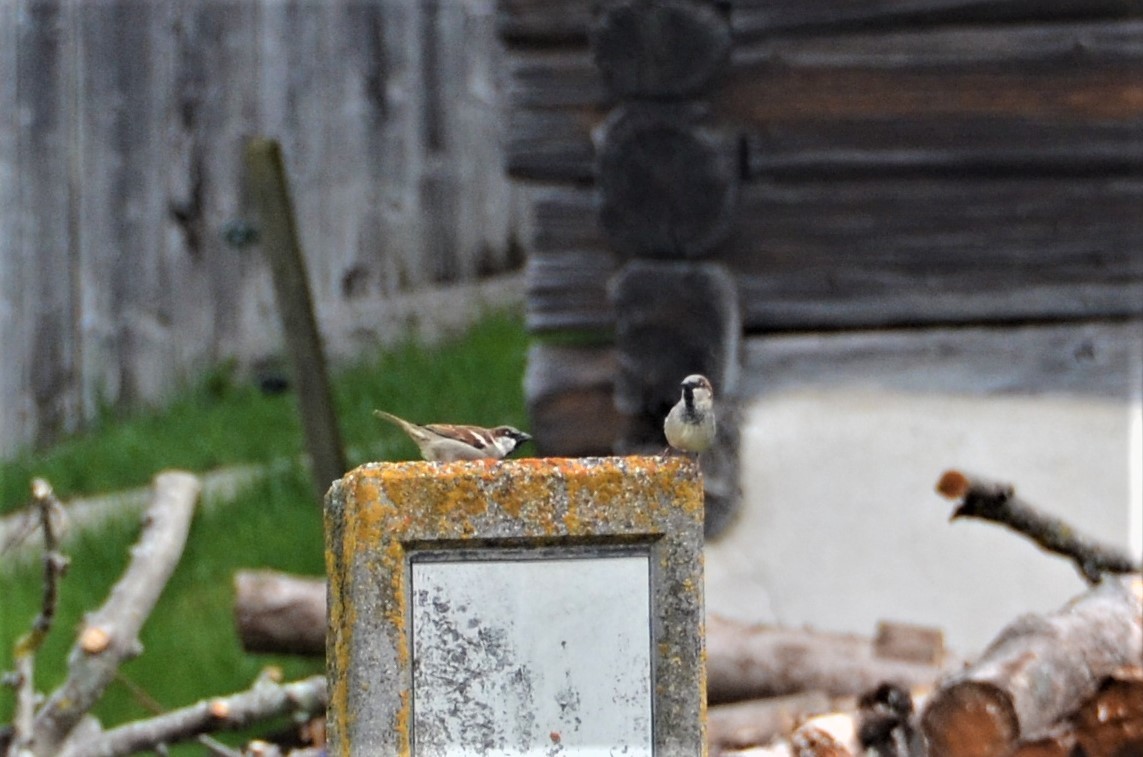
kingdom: Animalia
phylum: Chordata
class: Aves
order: Passeriformes
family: Passeridae
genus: Passer
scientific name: Passer domesticus
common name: House sparrow
